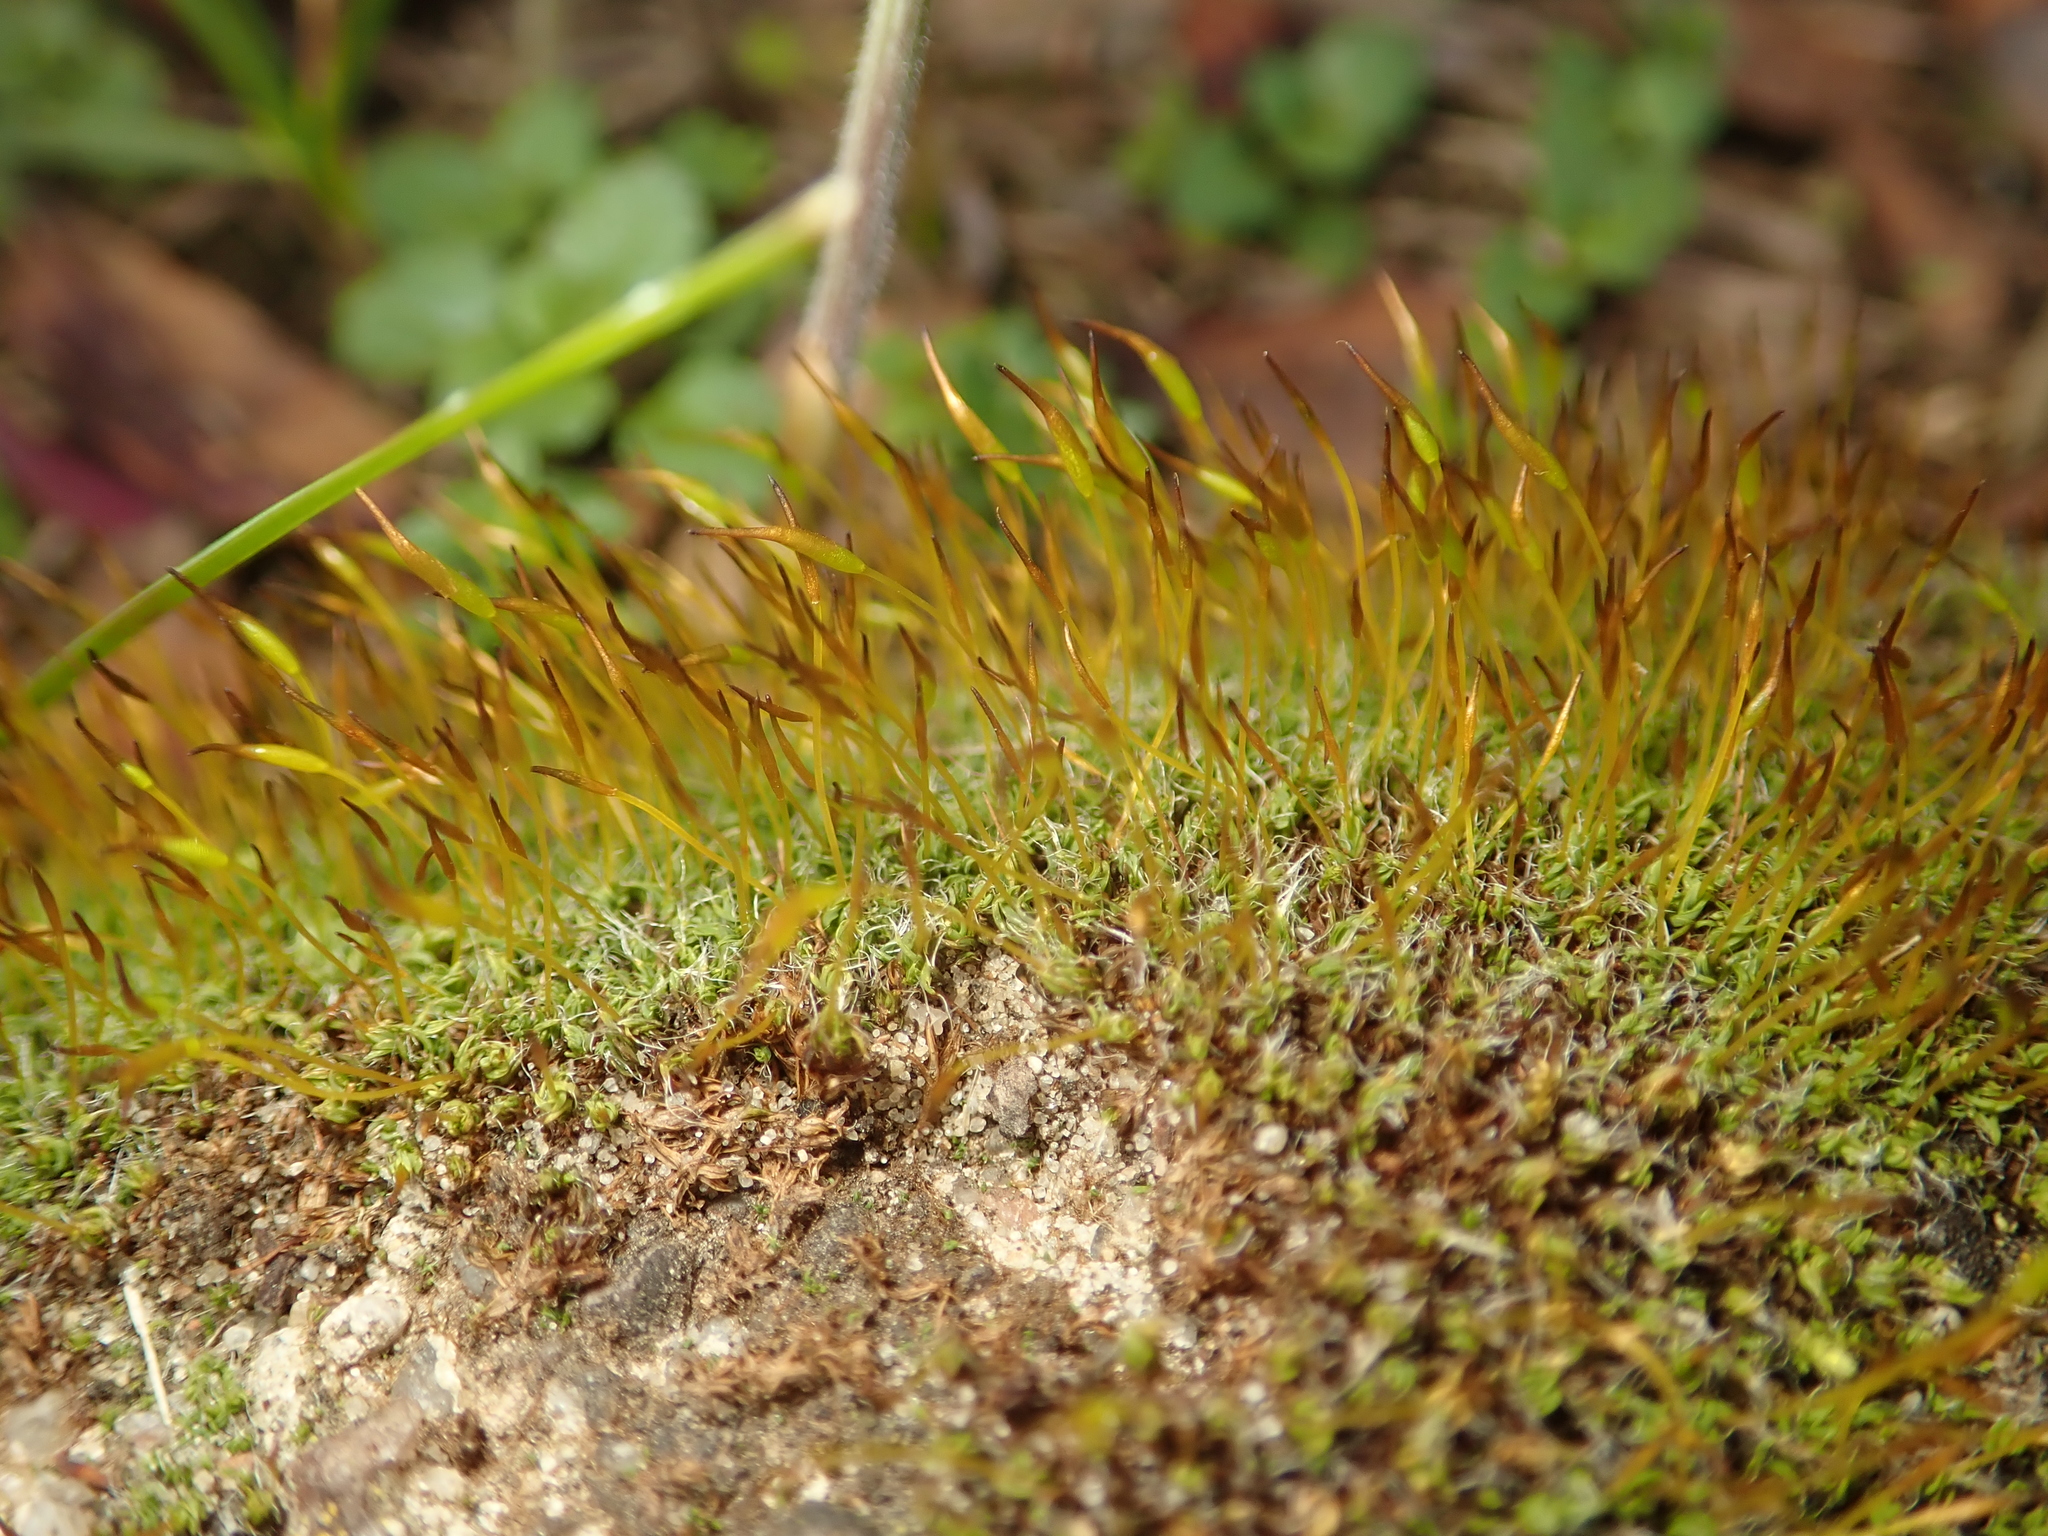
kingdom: Plantae
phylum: Bryophyta
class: Bryopsida
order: Pottiales
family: Pottiaceae
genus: Tortula
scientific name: Tortula muralis
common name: Wall screw-moss
